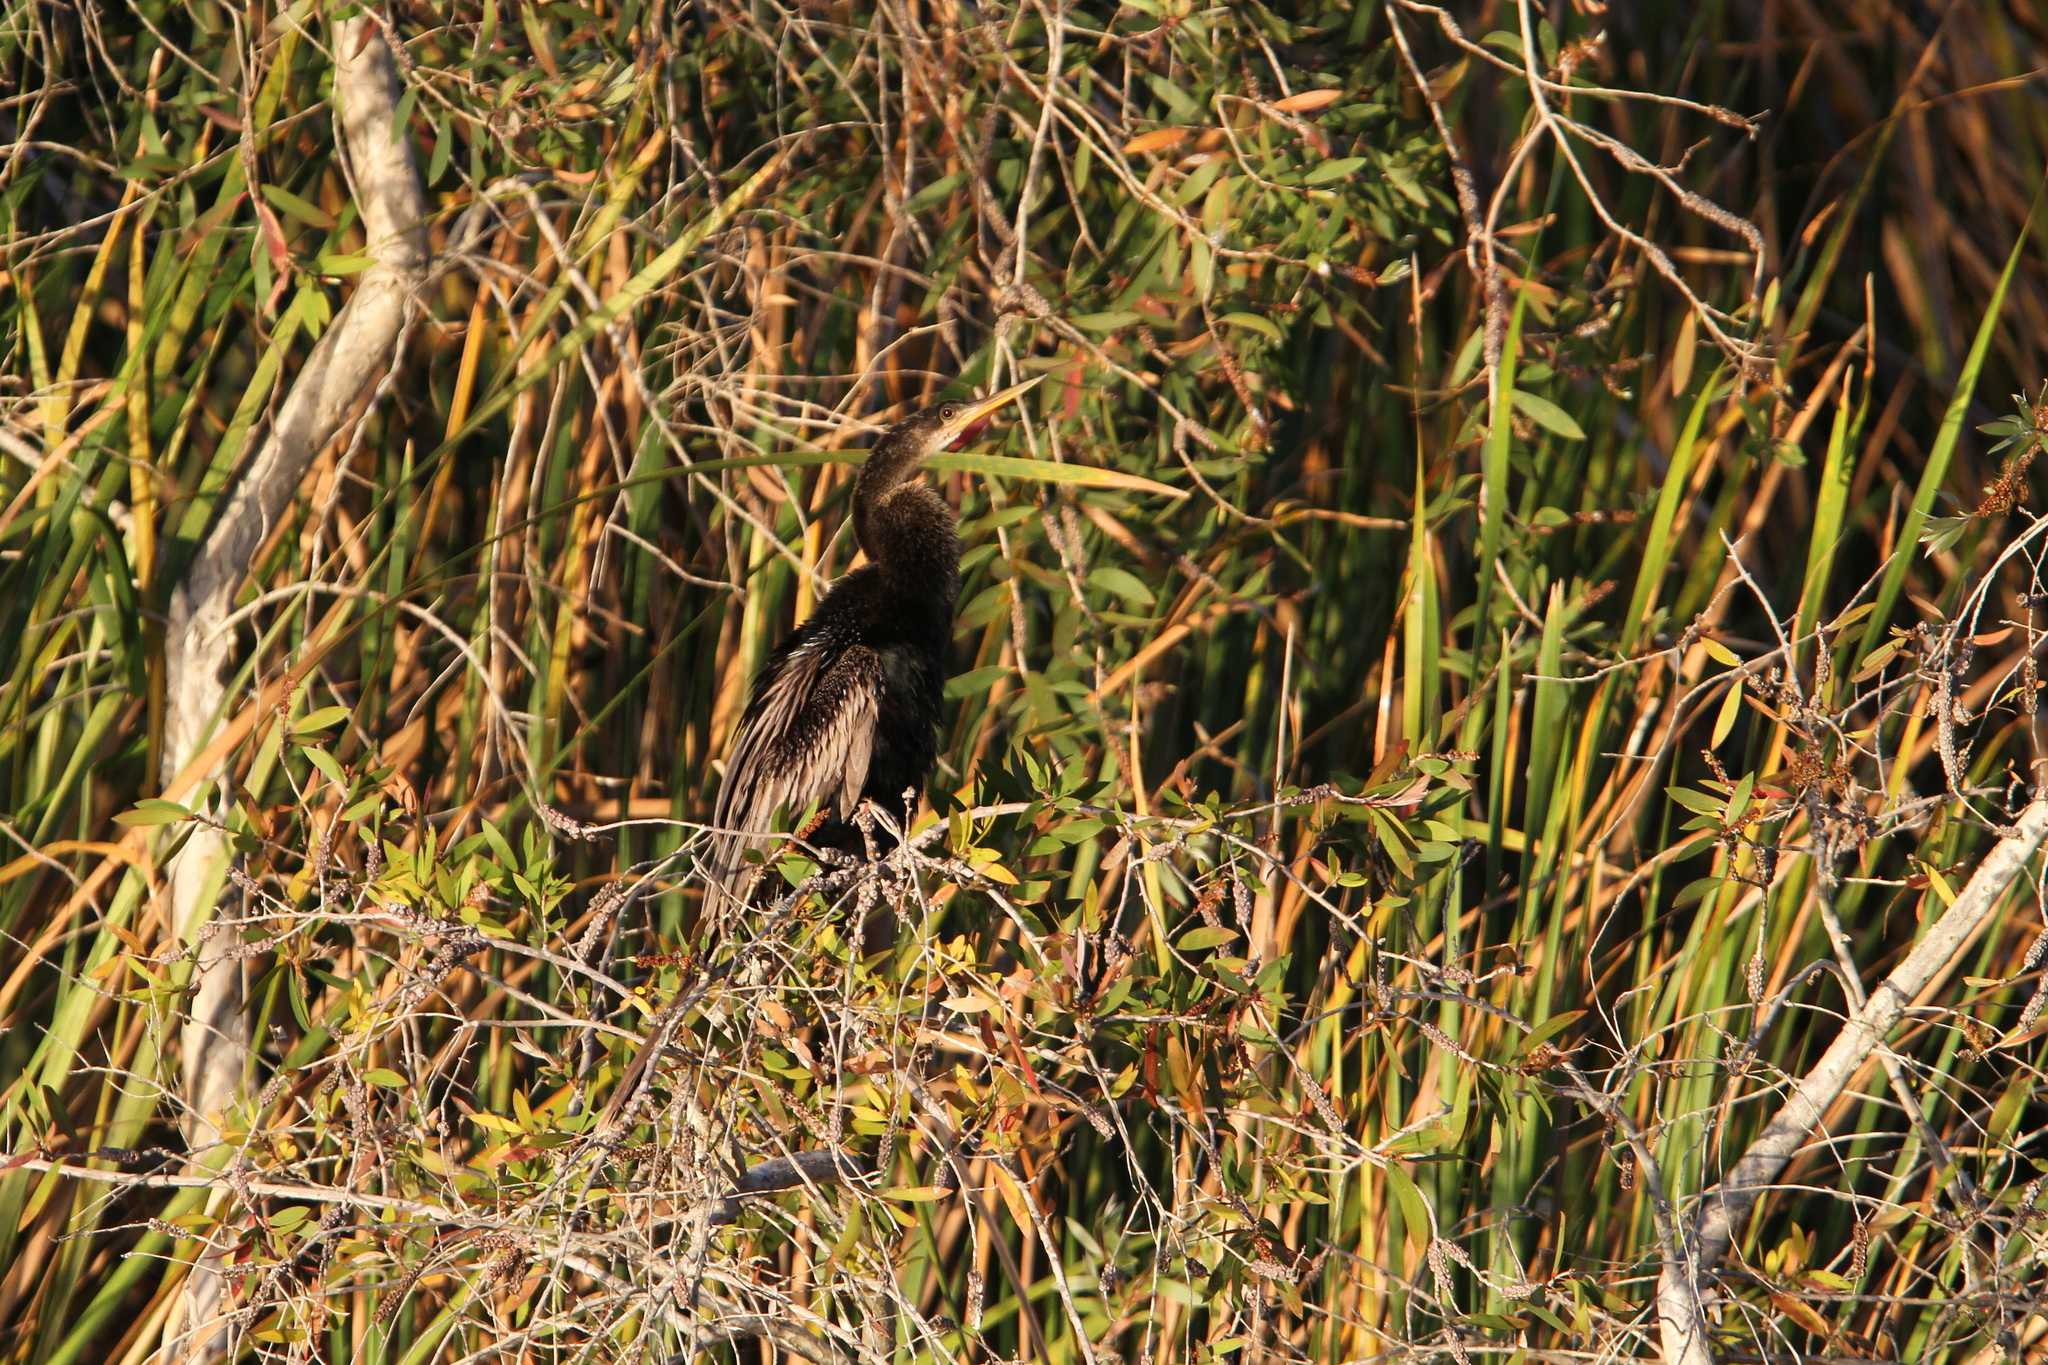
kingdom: Animalia
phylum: Chordata
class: Aves
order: Suliformes
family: Anhingidae
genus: Anhinga
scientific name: Anhinga anhinga
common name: Anhinga
